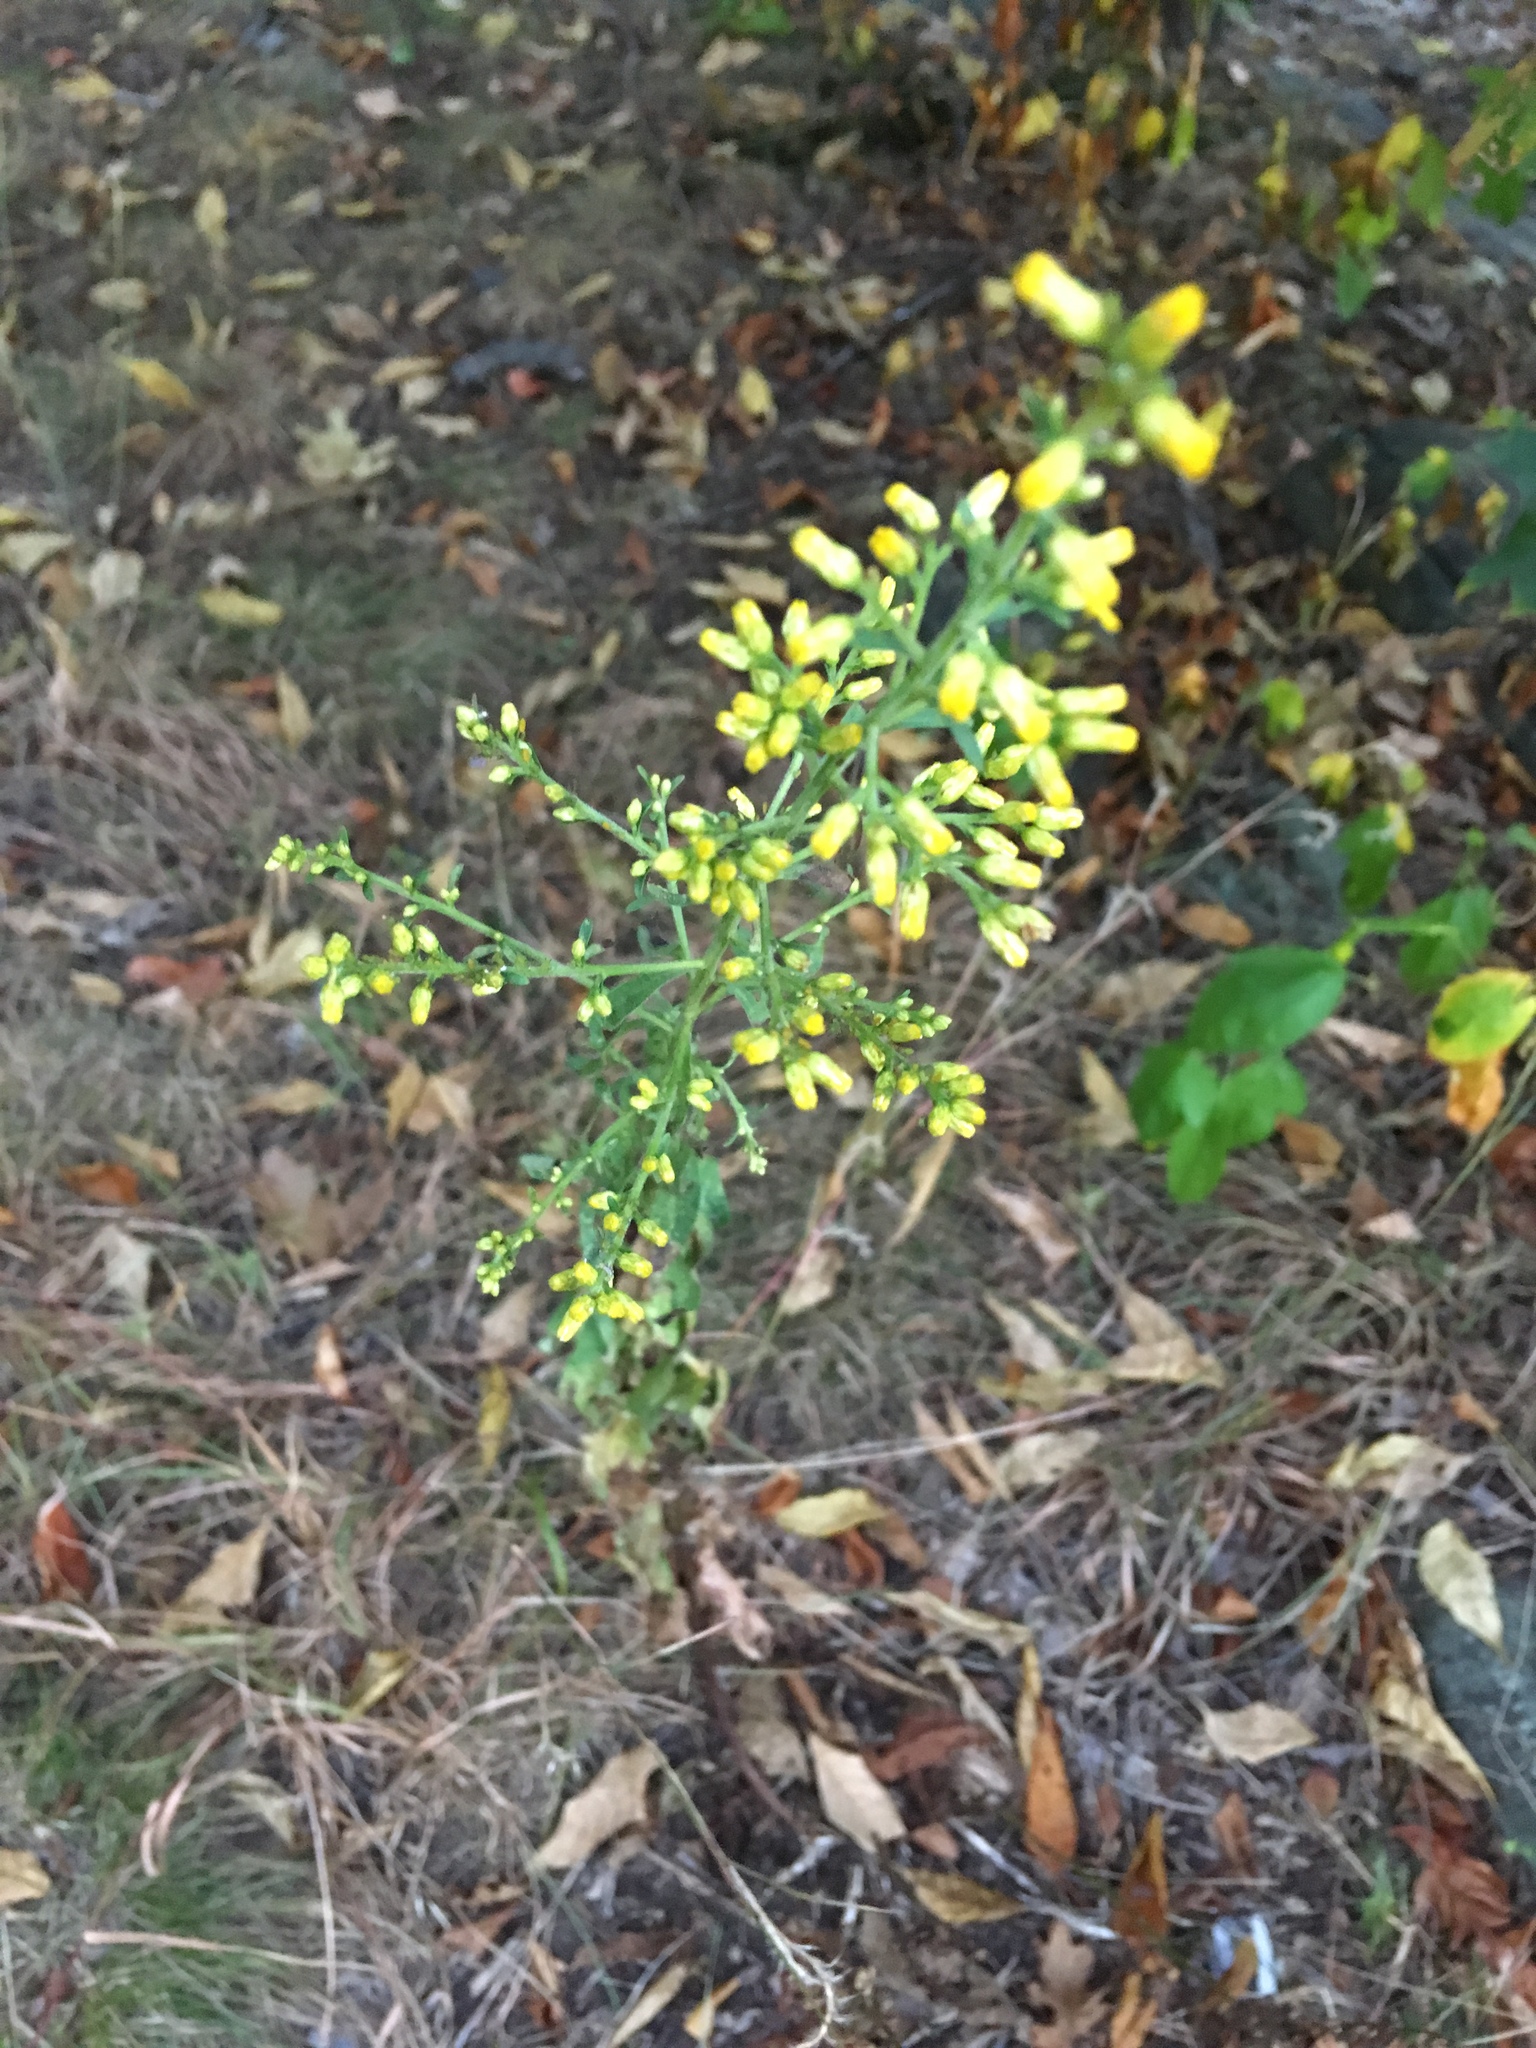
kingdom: Plantae
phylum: Tracheophyta
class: Magnoliopsida
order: Asterales
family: Asteraceae
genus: Solidago
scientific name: Solidago speciosa
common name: Showy goldenrod
